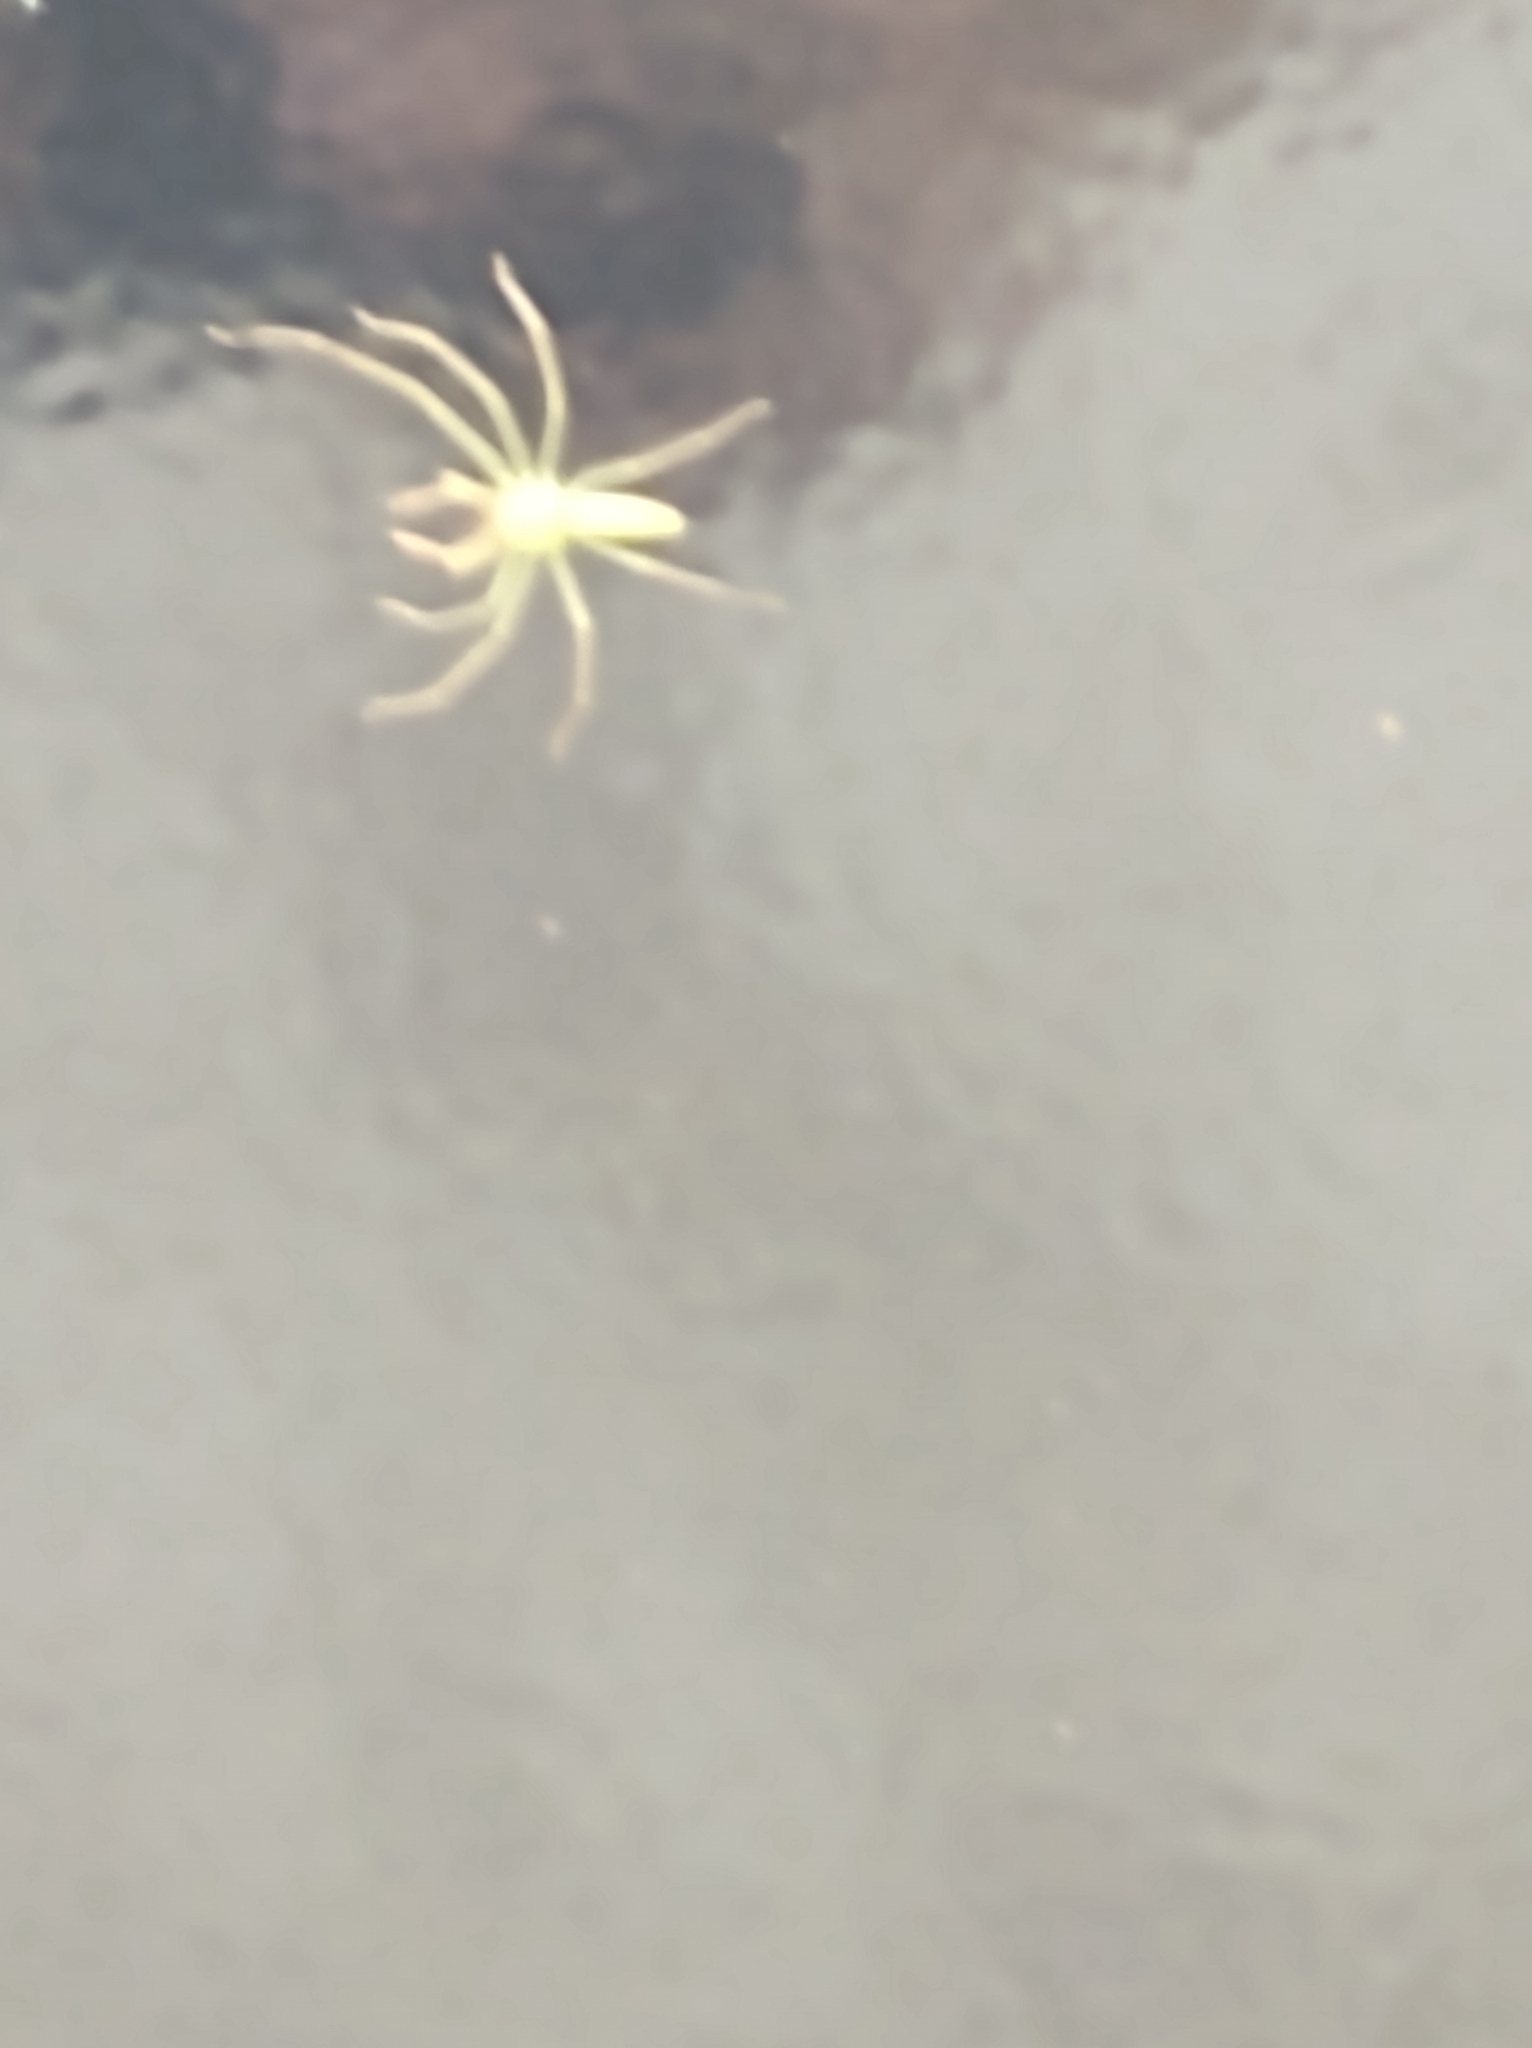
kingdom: Animalia
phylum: Arthropoda
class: Arachnida
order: Araneae
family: Salticidae
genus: Lyssomanes
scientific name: Lyssomanes viridis
